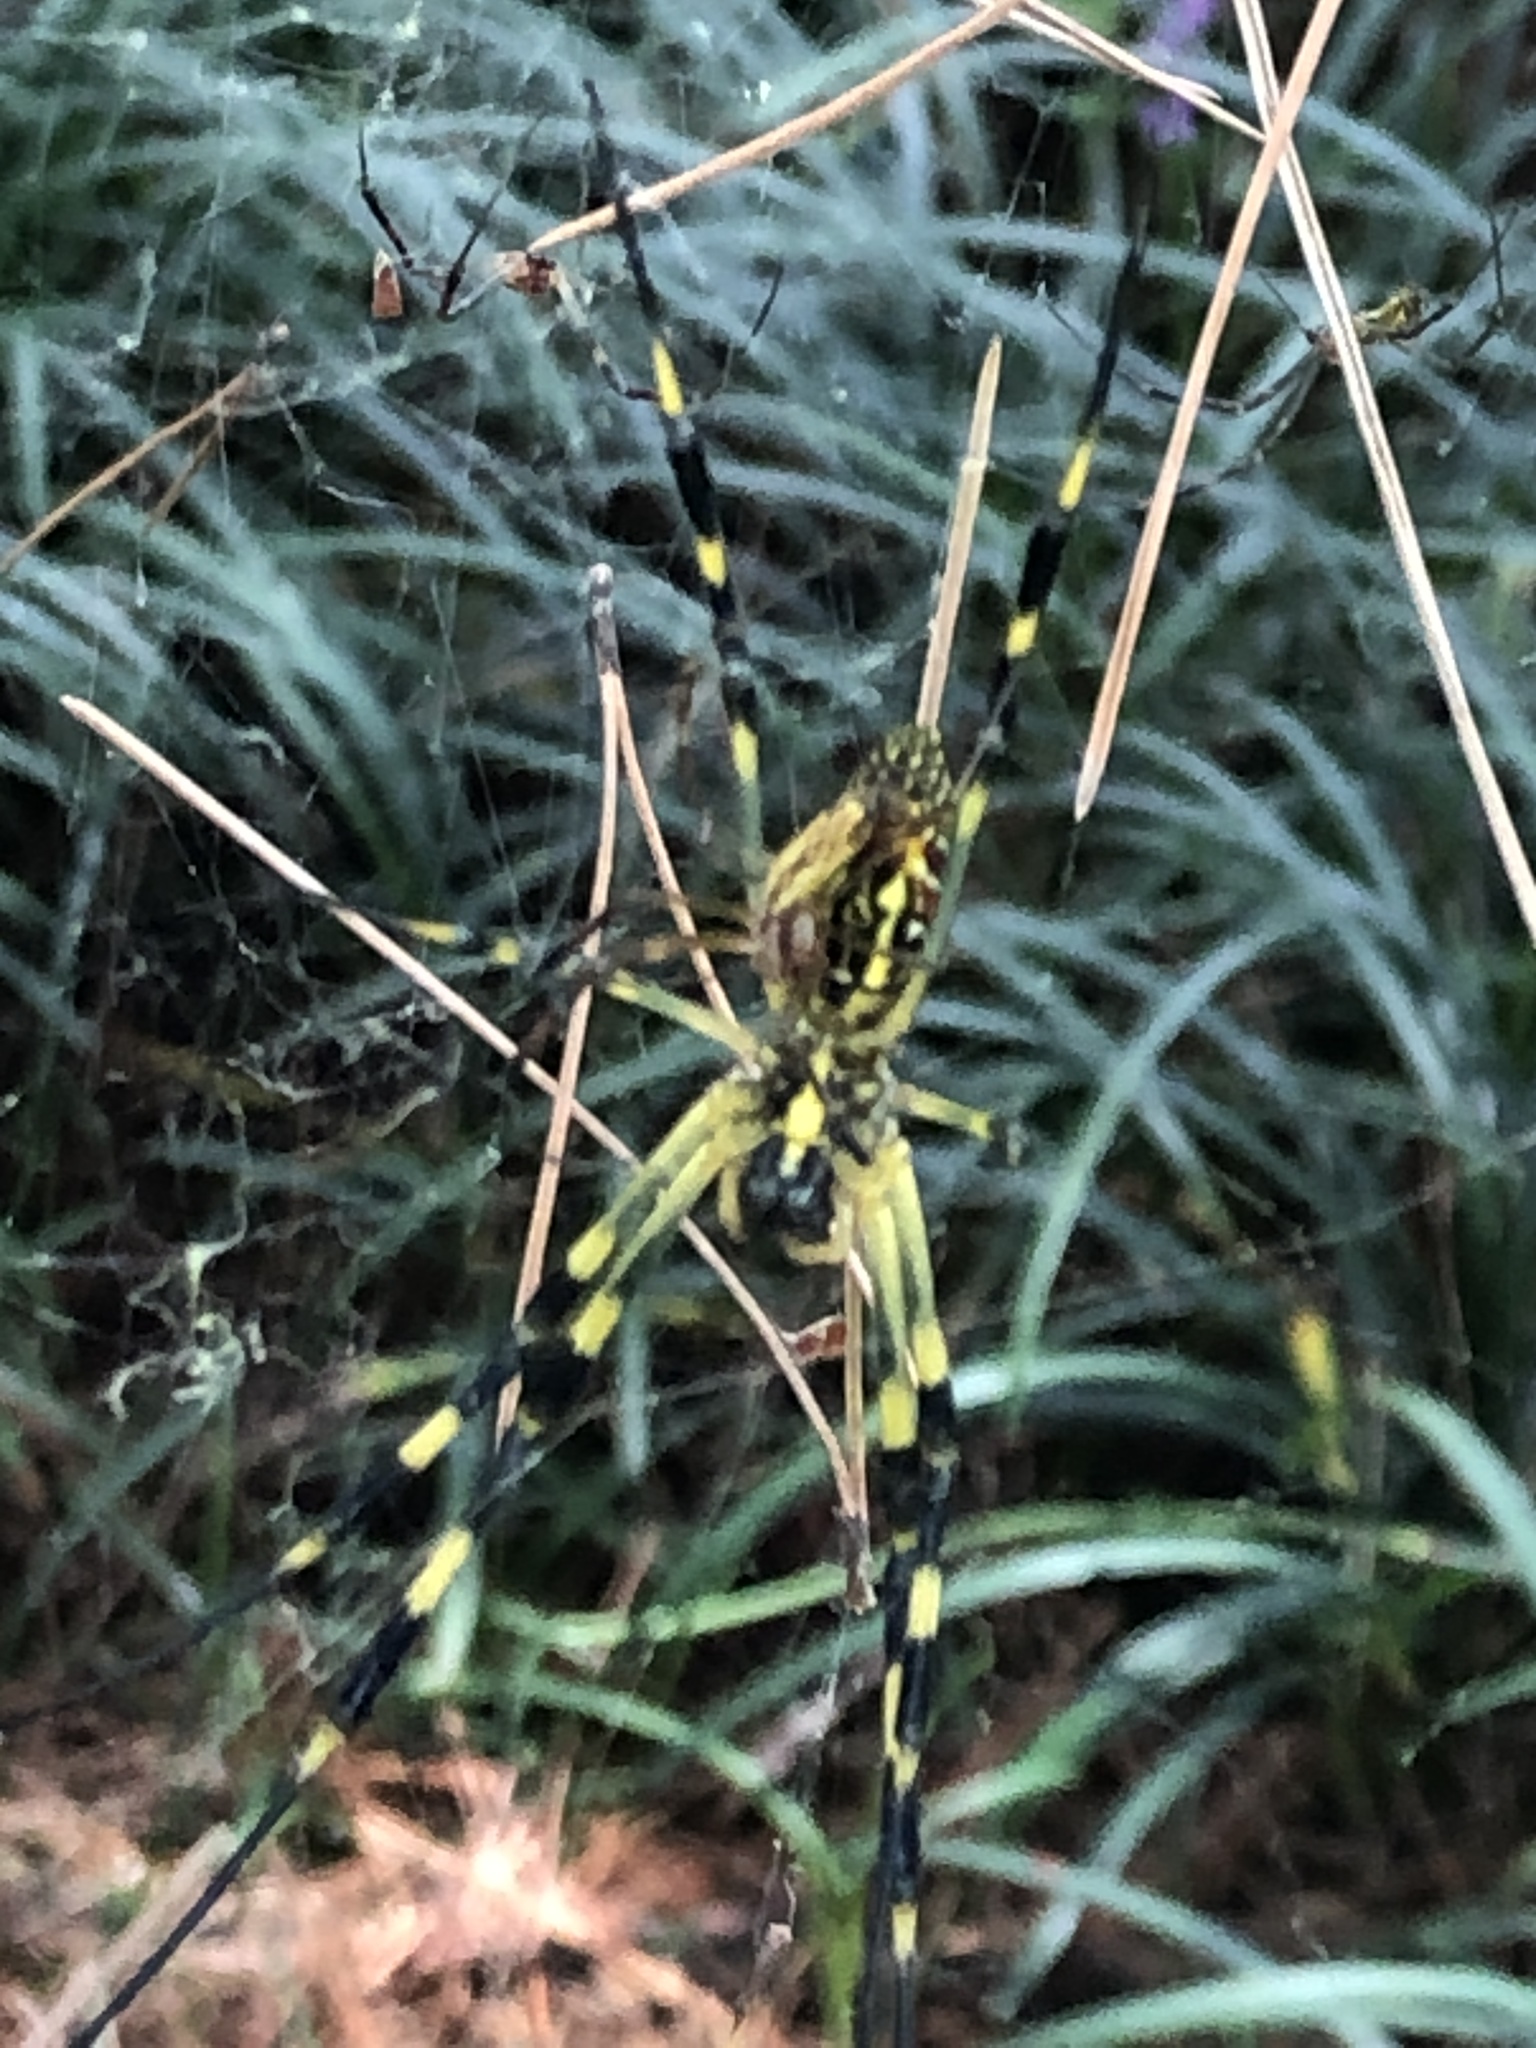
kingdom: Animalia
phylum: Arthropoda
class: Arachnida
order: Araneae
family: Araneidae
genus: Trichonephila
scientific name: Trichonephila clavata
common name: Jorō spider
